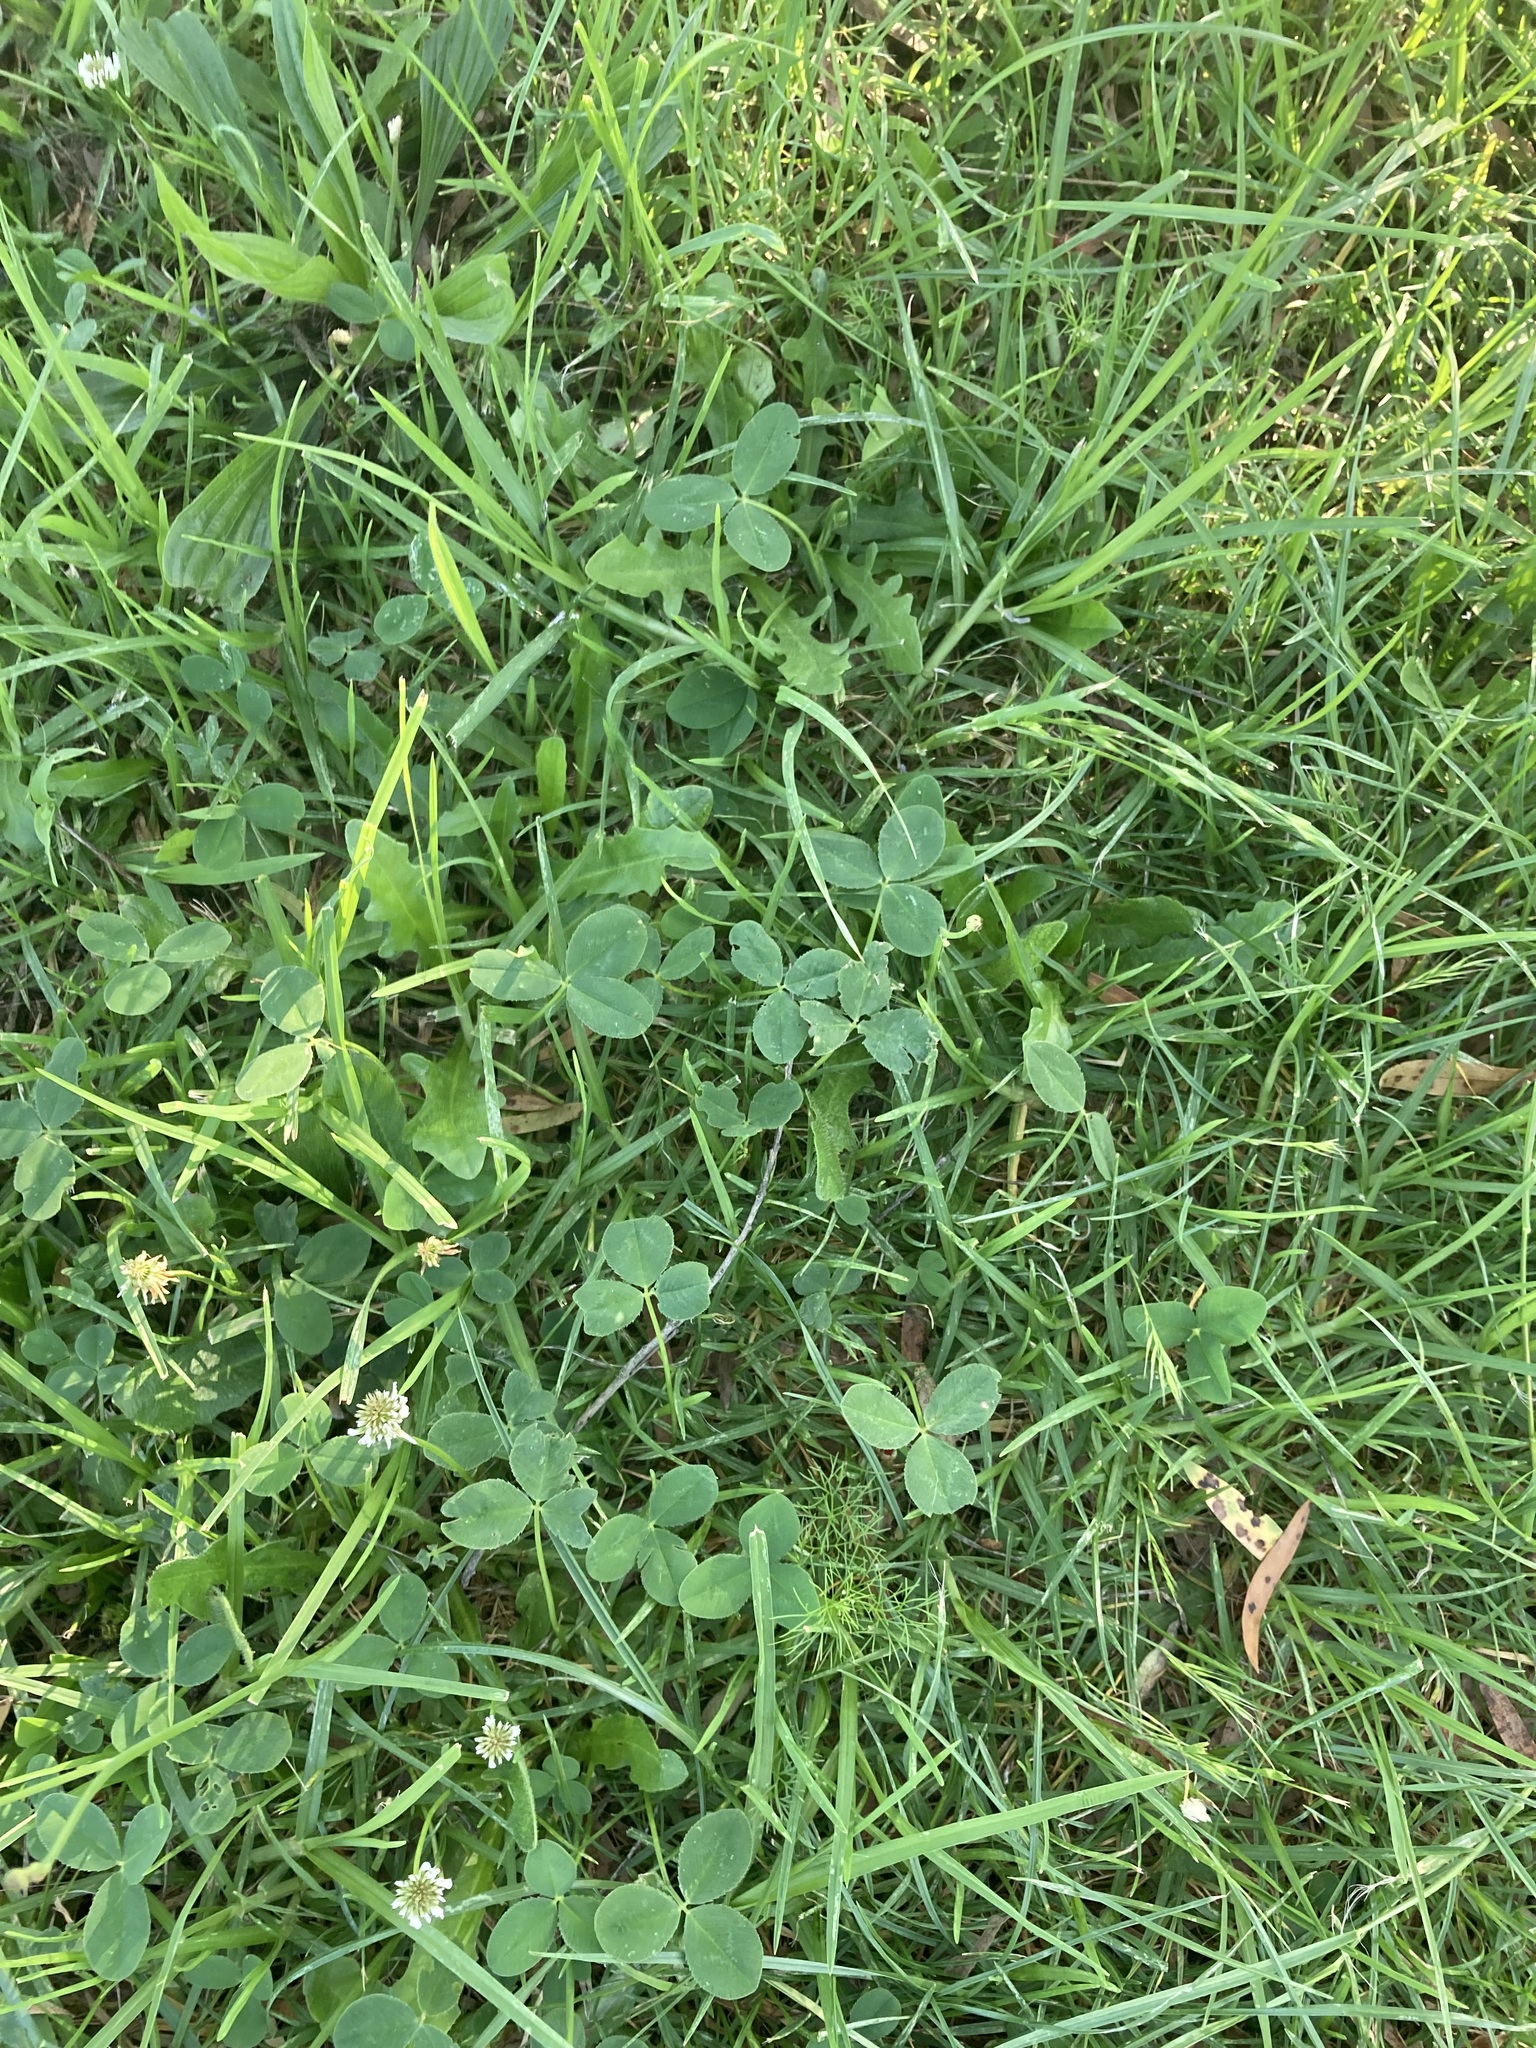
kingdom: Plantae
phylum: Tracheophyta
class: Magnoliopsida
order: Fabales
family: Fabaceae
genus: Trifolium
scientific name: Trifolium repens
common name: White clover
